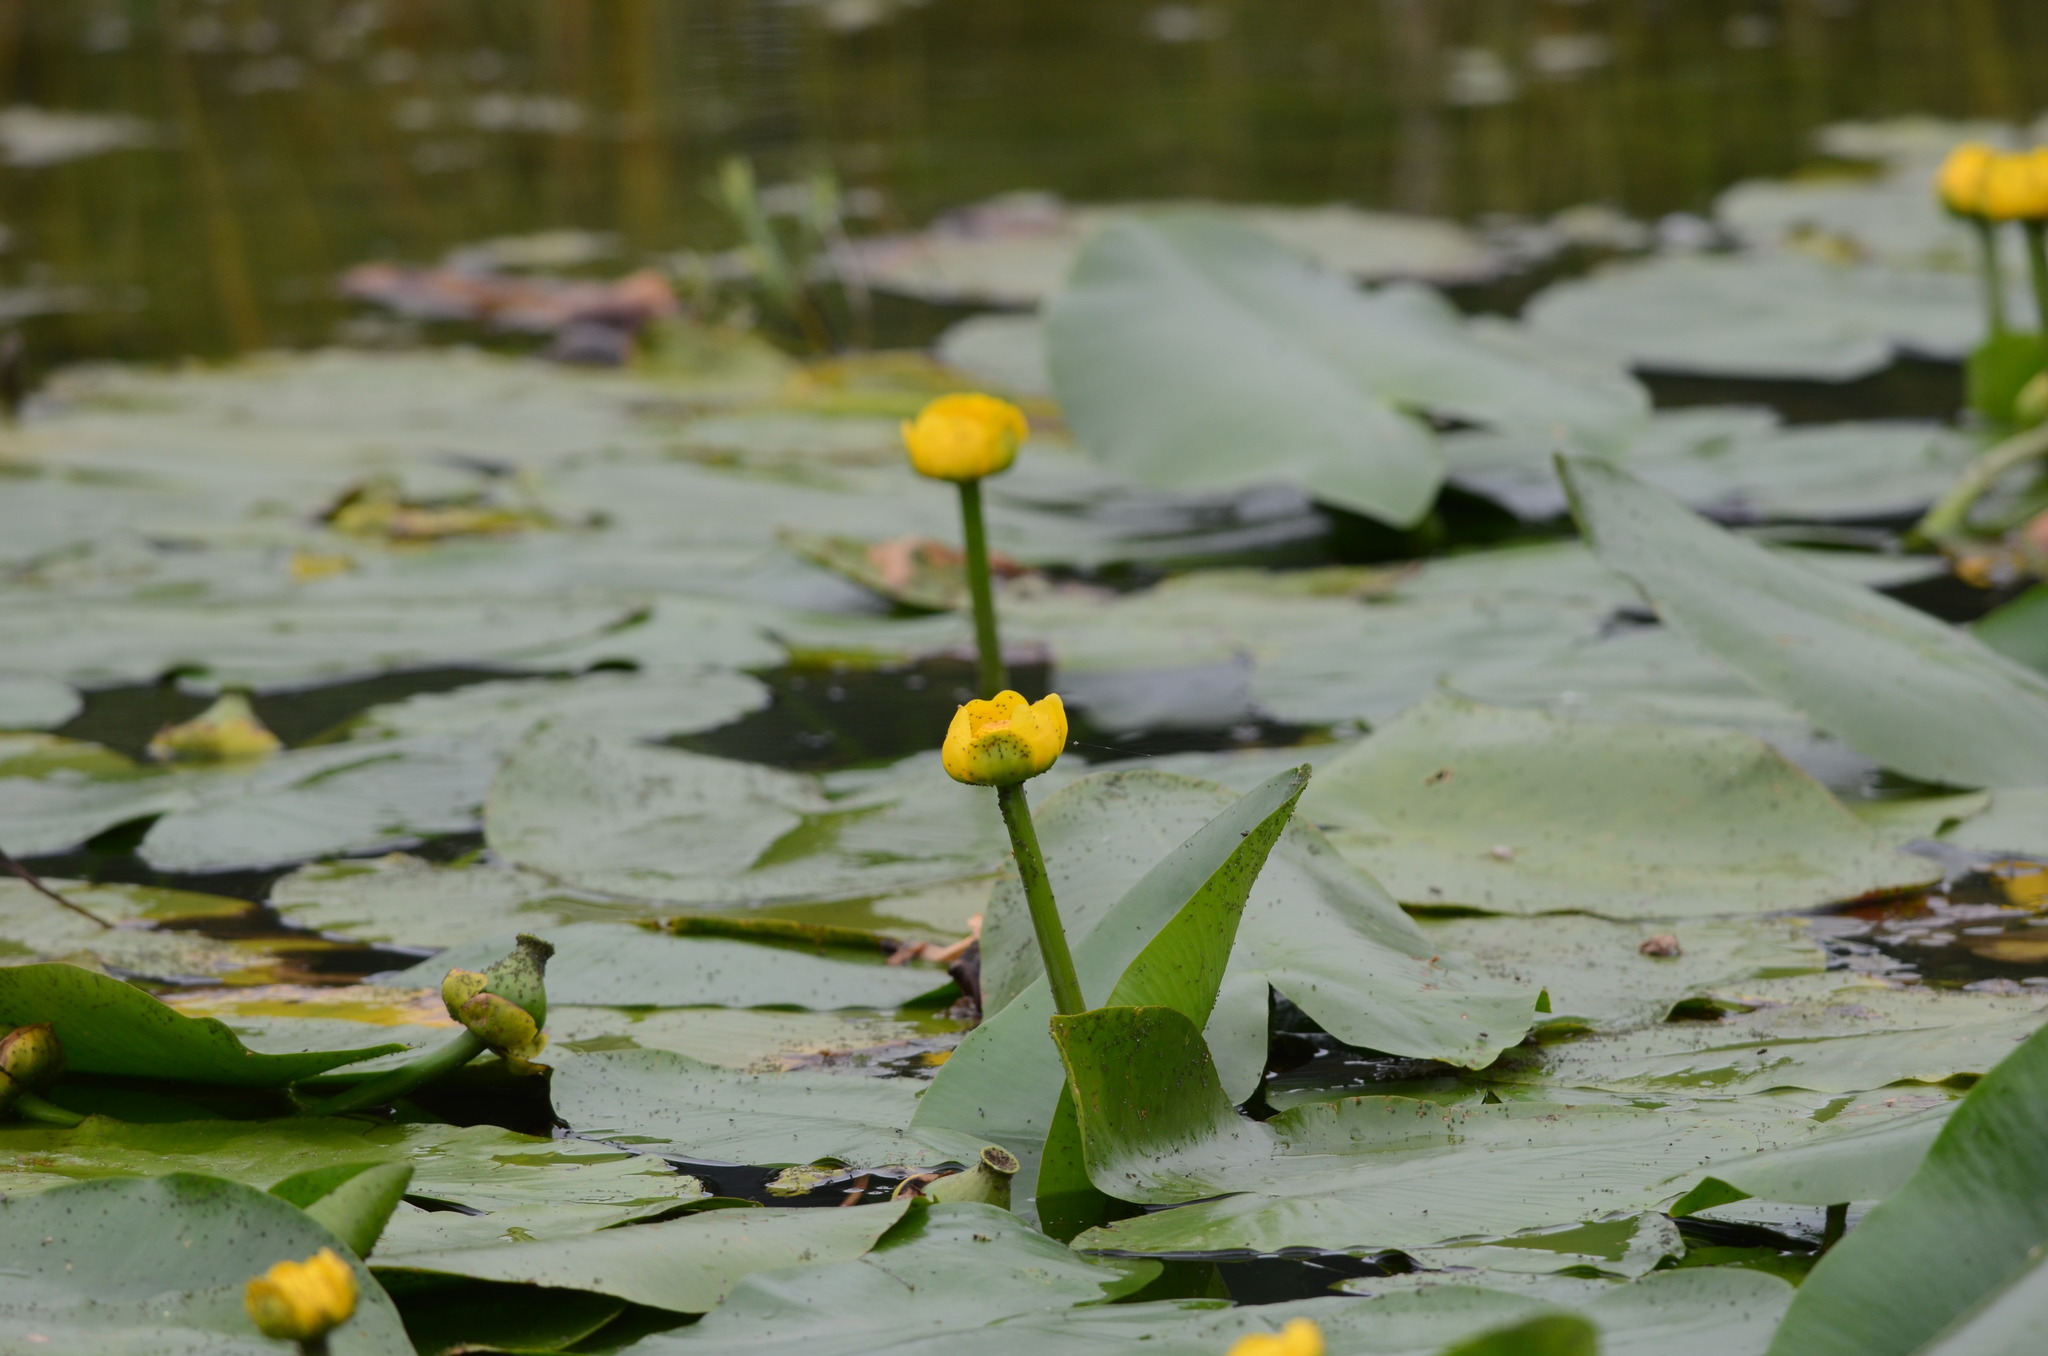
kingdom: Plantae
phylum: Tracheophyta
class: Magnoliopsida
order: Nymphaeales
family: Nymphaeaceae
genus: Nuphar
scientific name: Nuphar lutea
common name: Yellow water-lily
